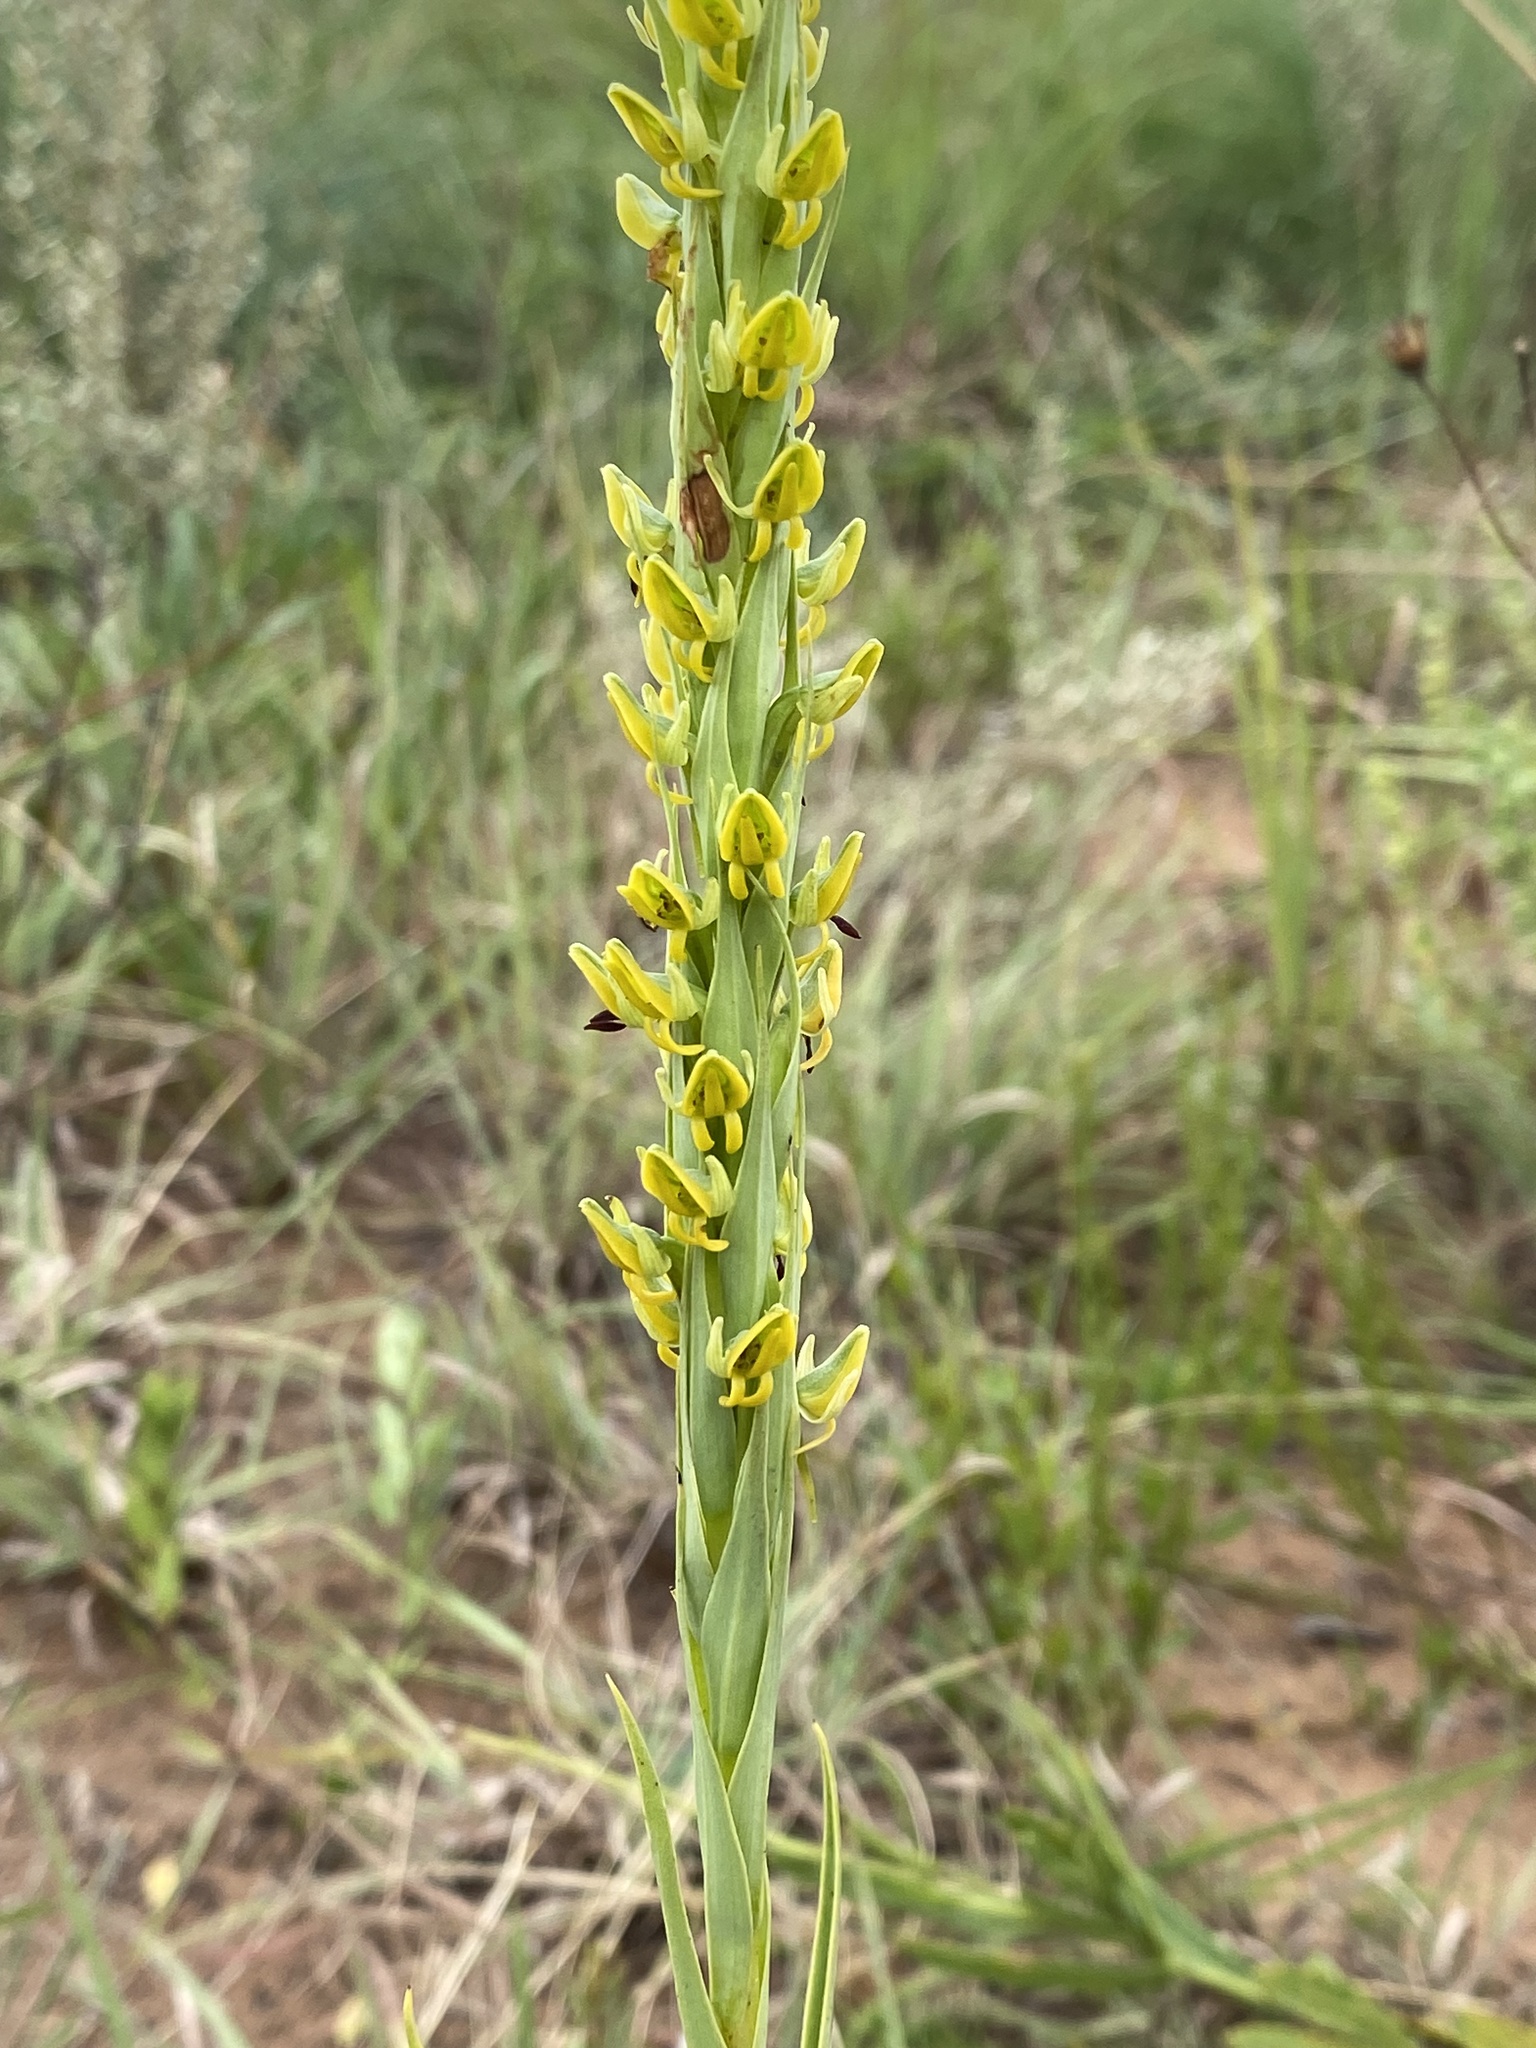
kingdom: Plantae
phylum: Tracheophyta
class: Liliopsida
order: Asparagales
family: Orchidaceae
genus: Habenaria
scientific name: Habenaria bicolor
